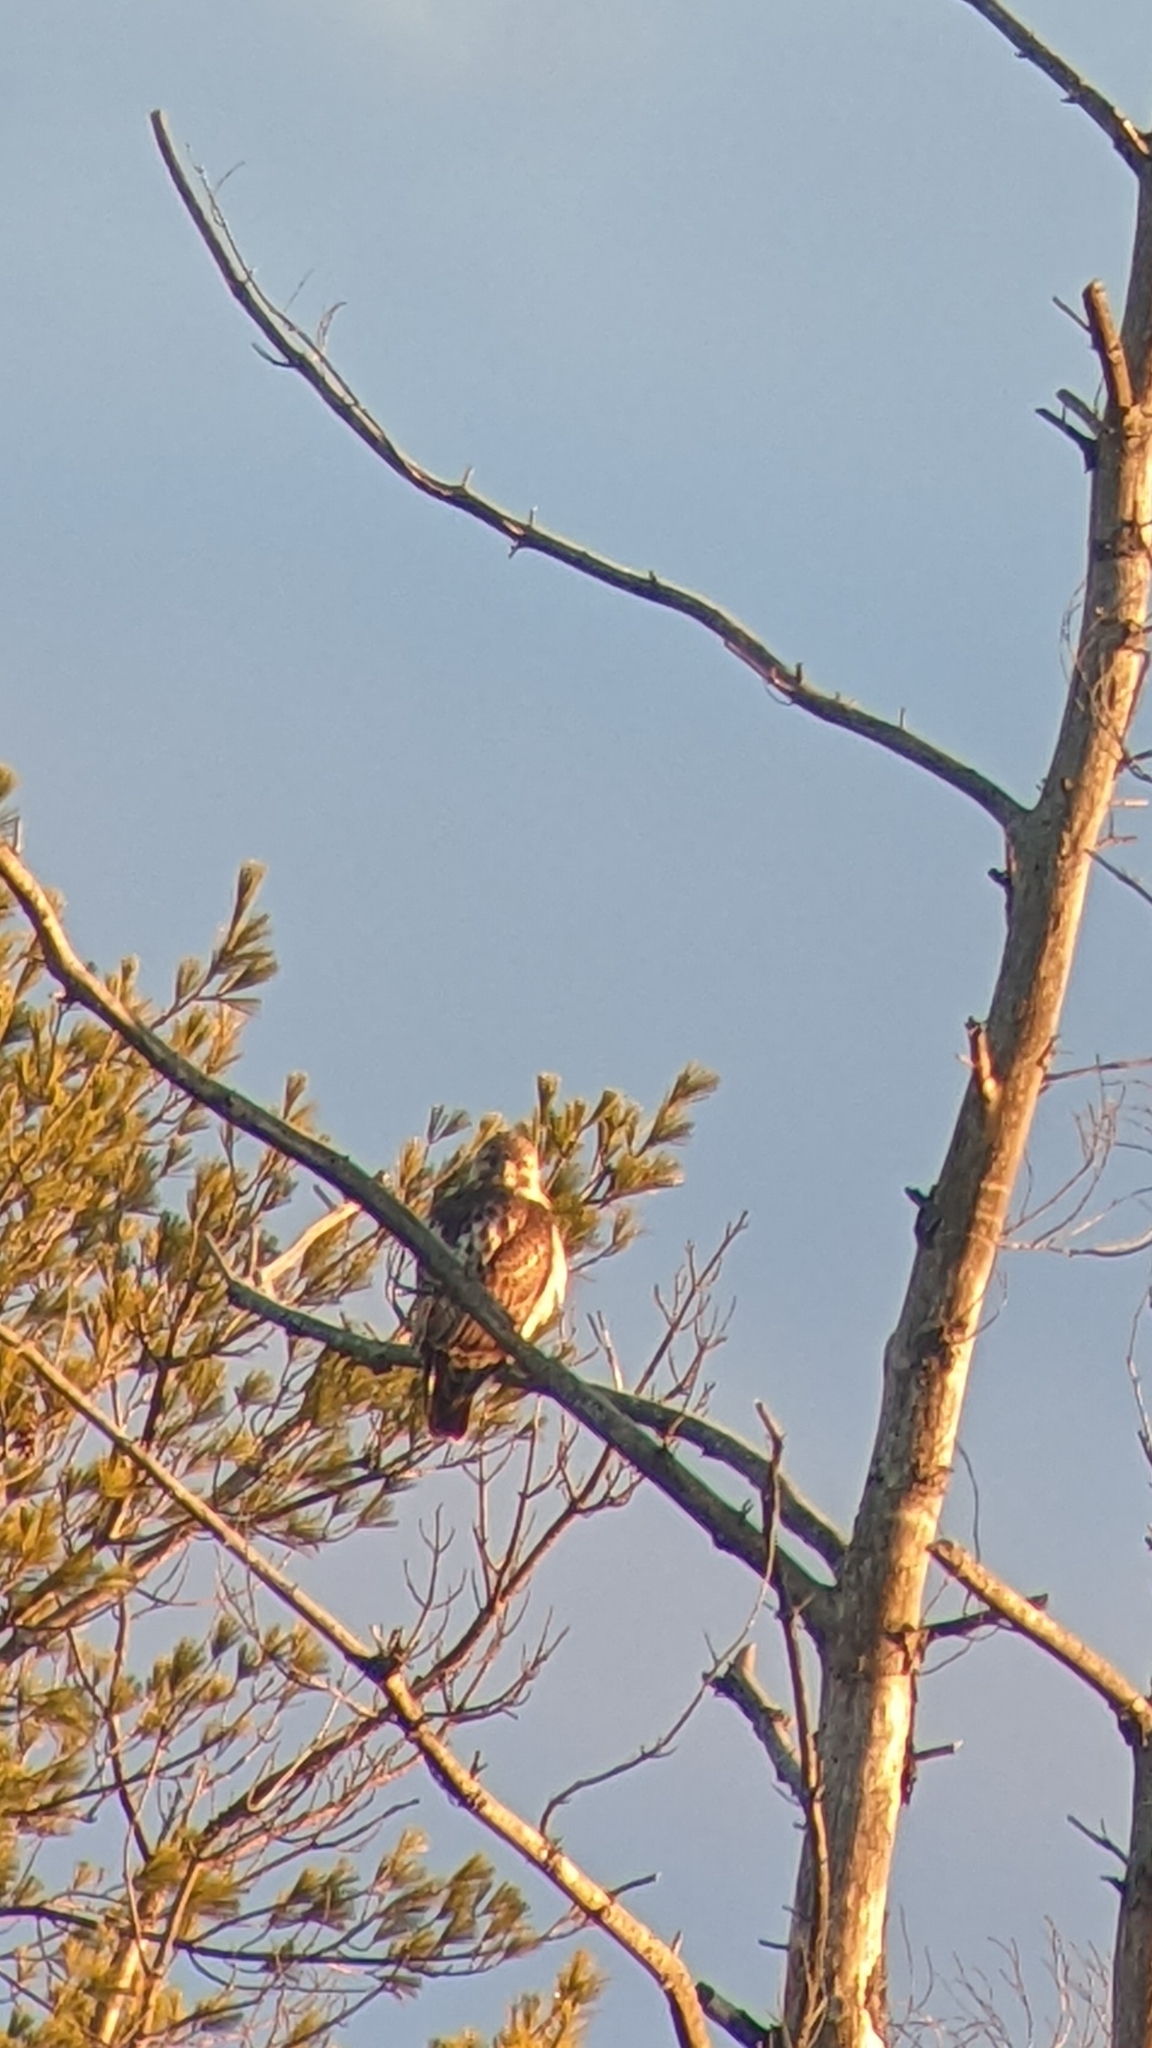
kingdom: Animalia
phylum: Chordata
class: Aves
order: Accipitriformes
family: Accipitridae
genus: Buteo
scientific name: Buteo jamaicensis
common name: Red-tailed hawk
